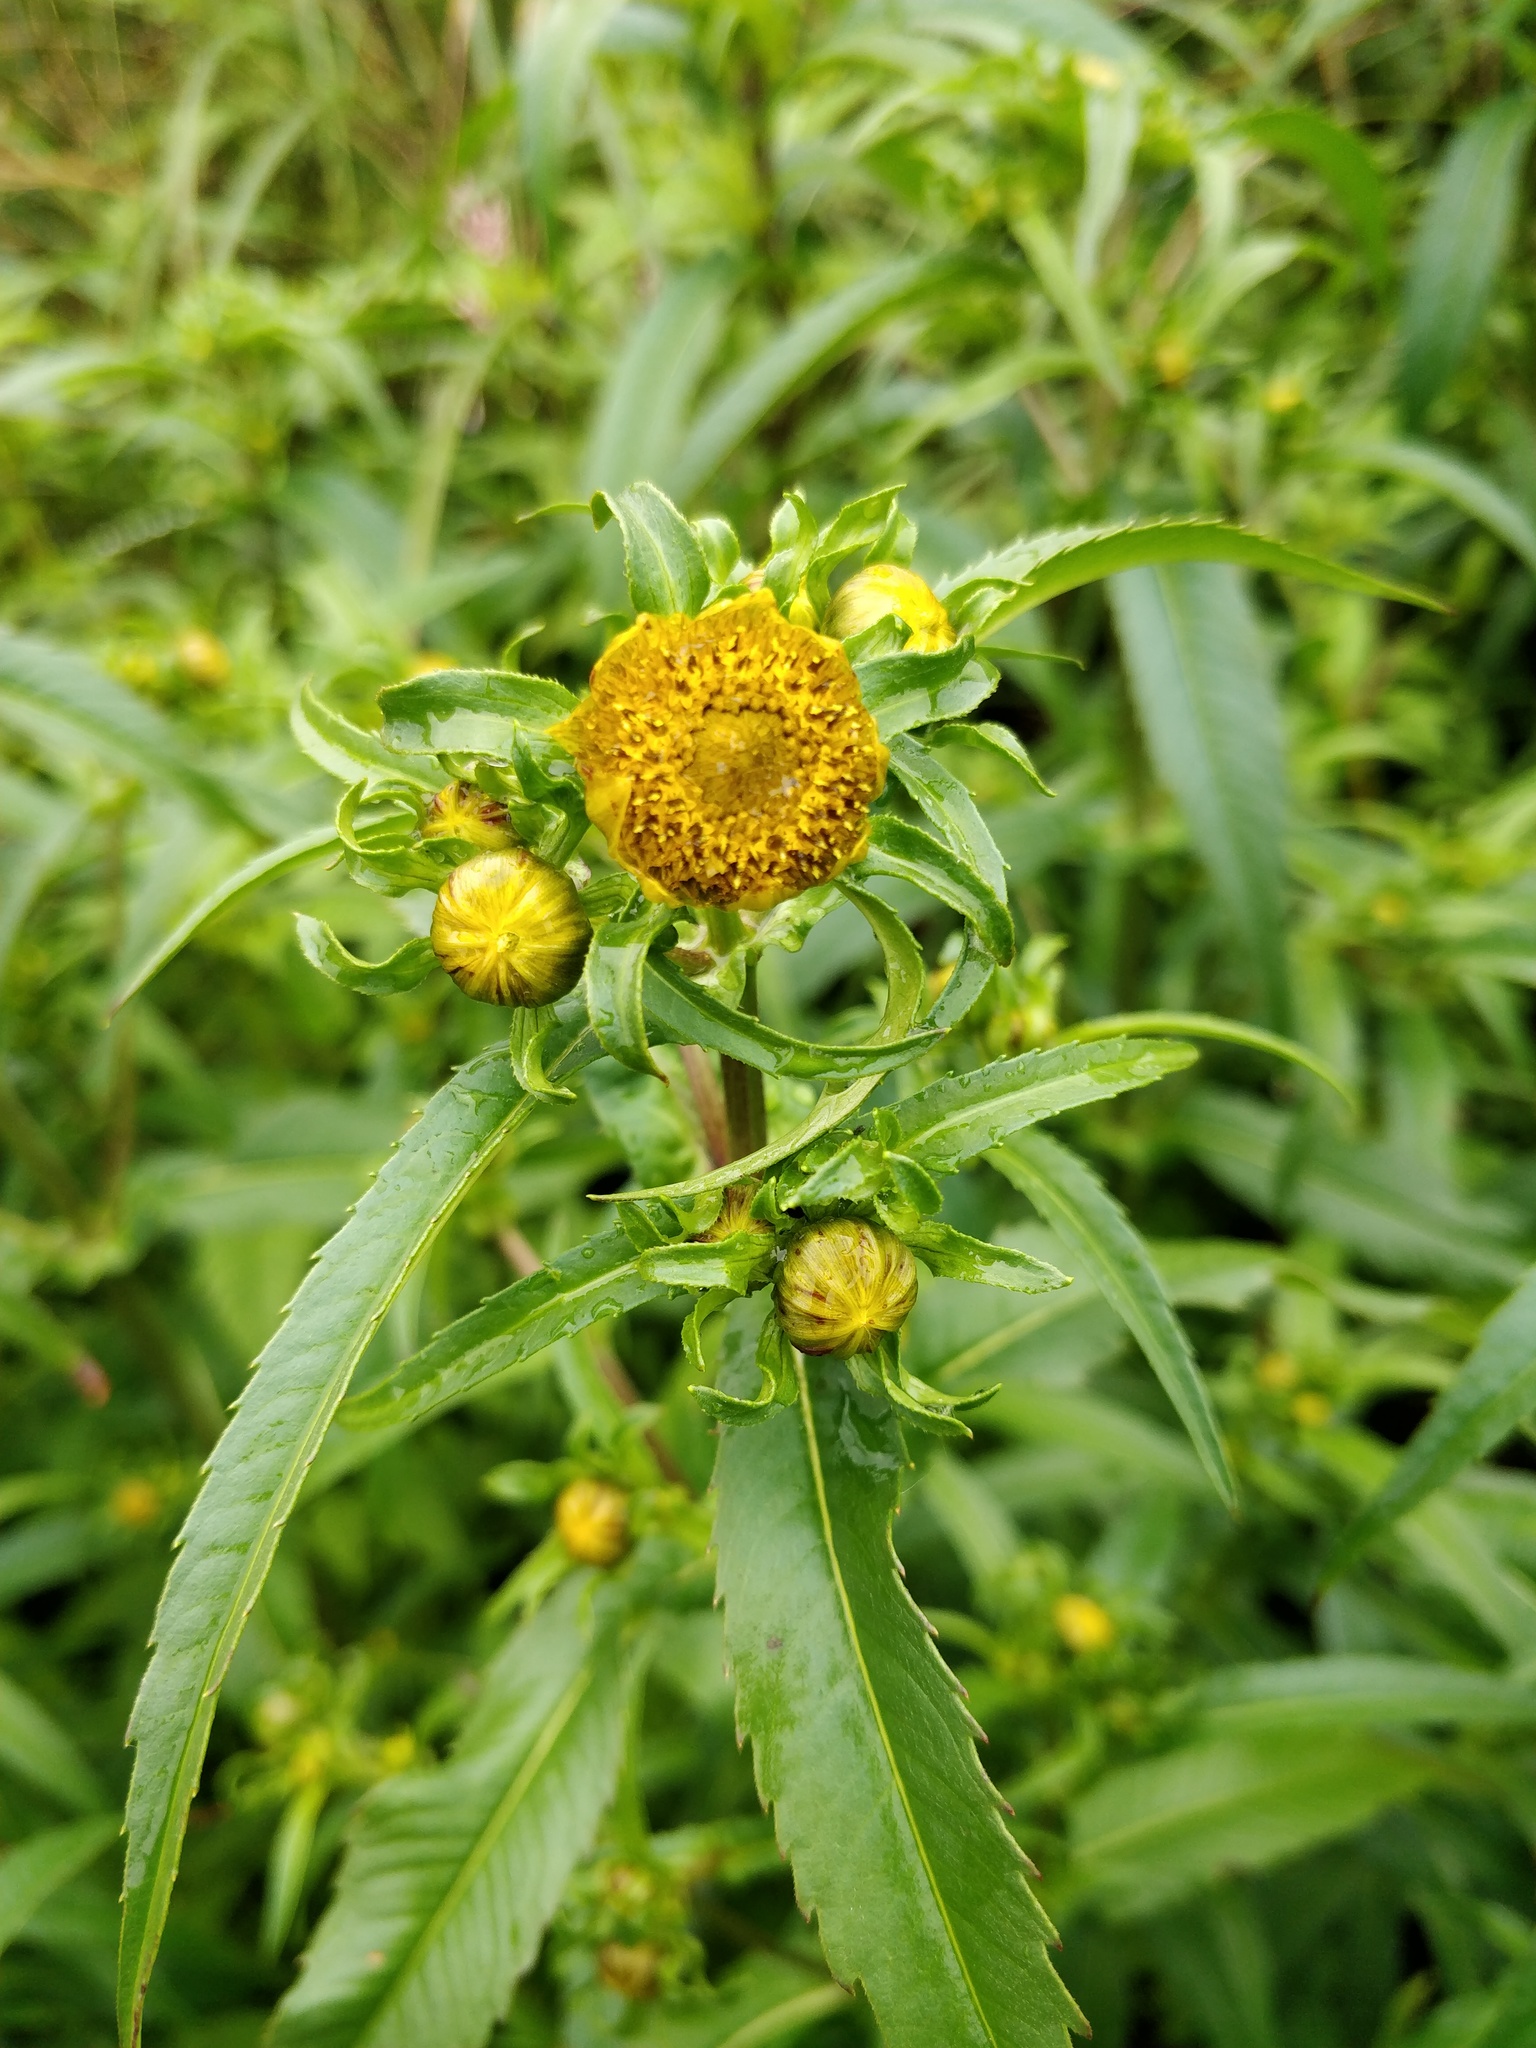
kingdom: Plantae
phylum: Tracheophyta
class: Magnoliopsida
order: Asterales
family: Asteraceae
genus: Bidens
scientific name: Bidens cernua
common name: Nodding bur-marigold
